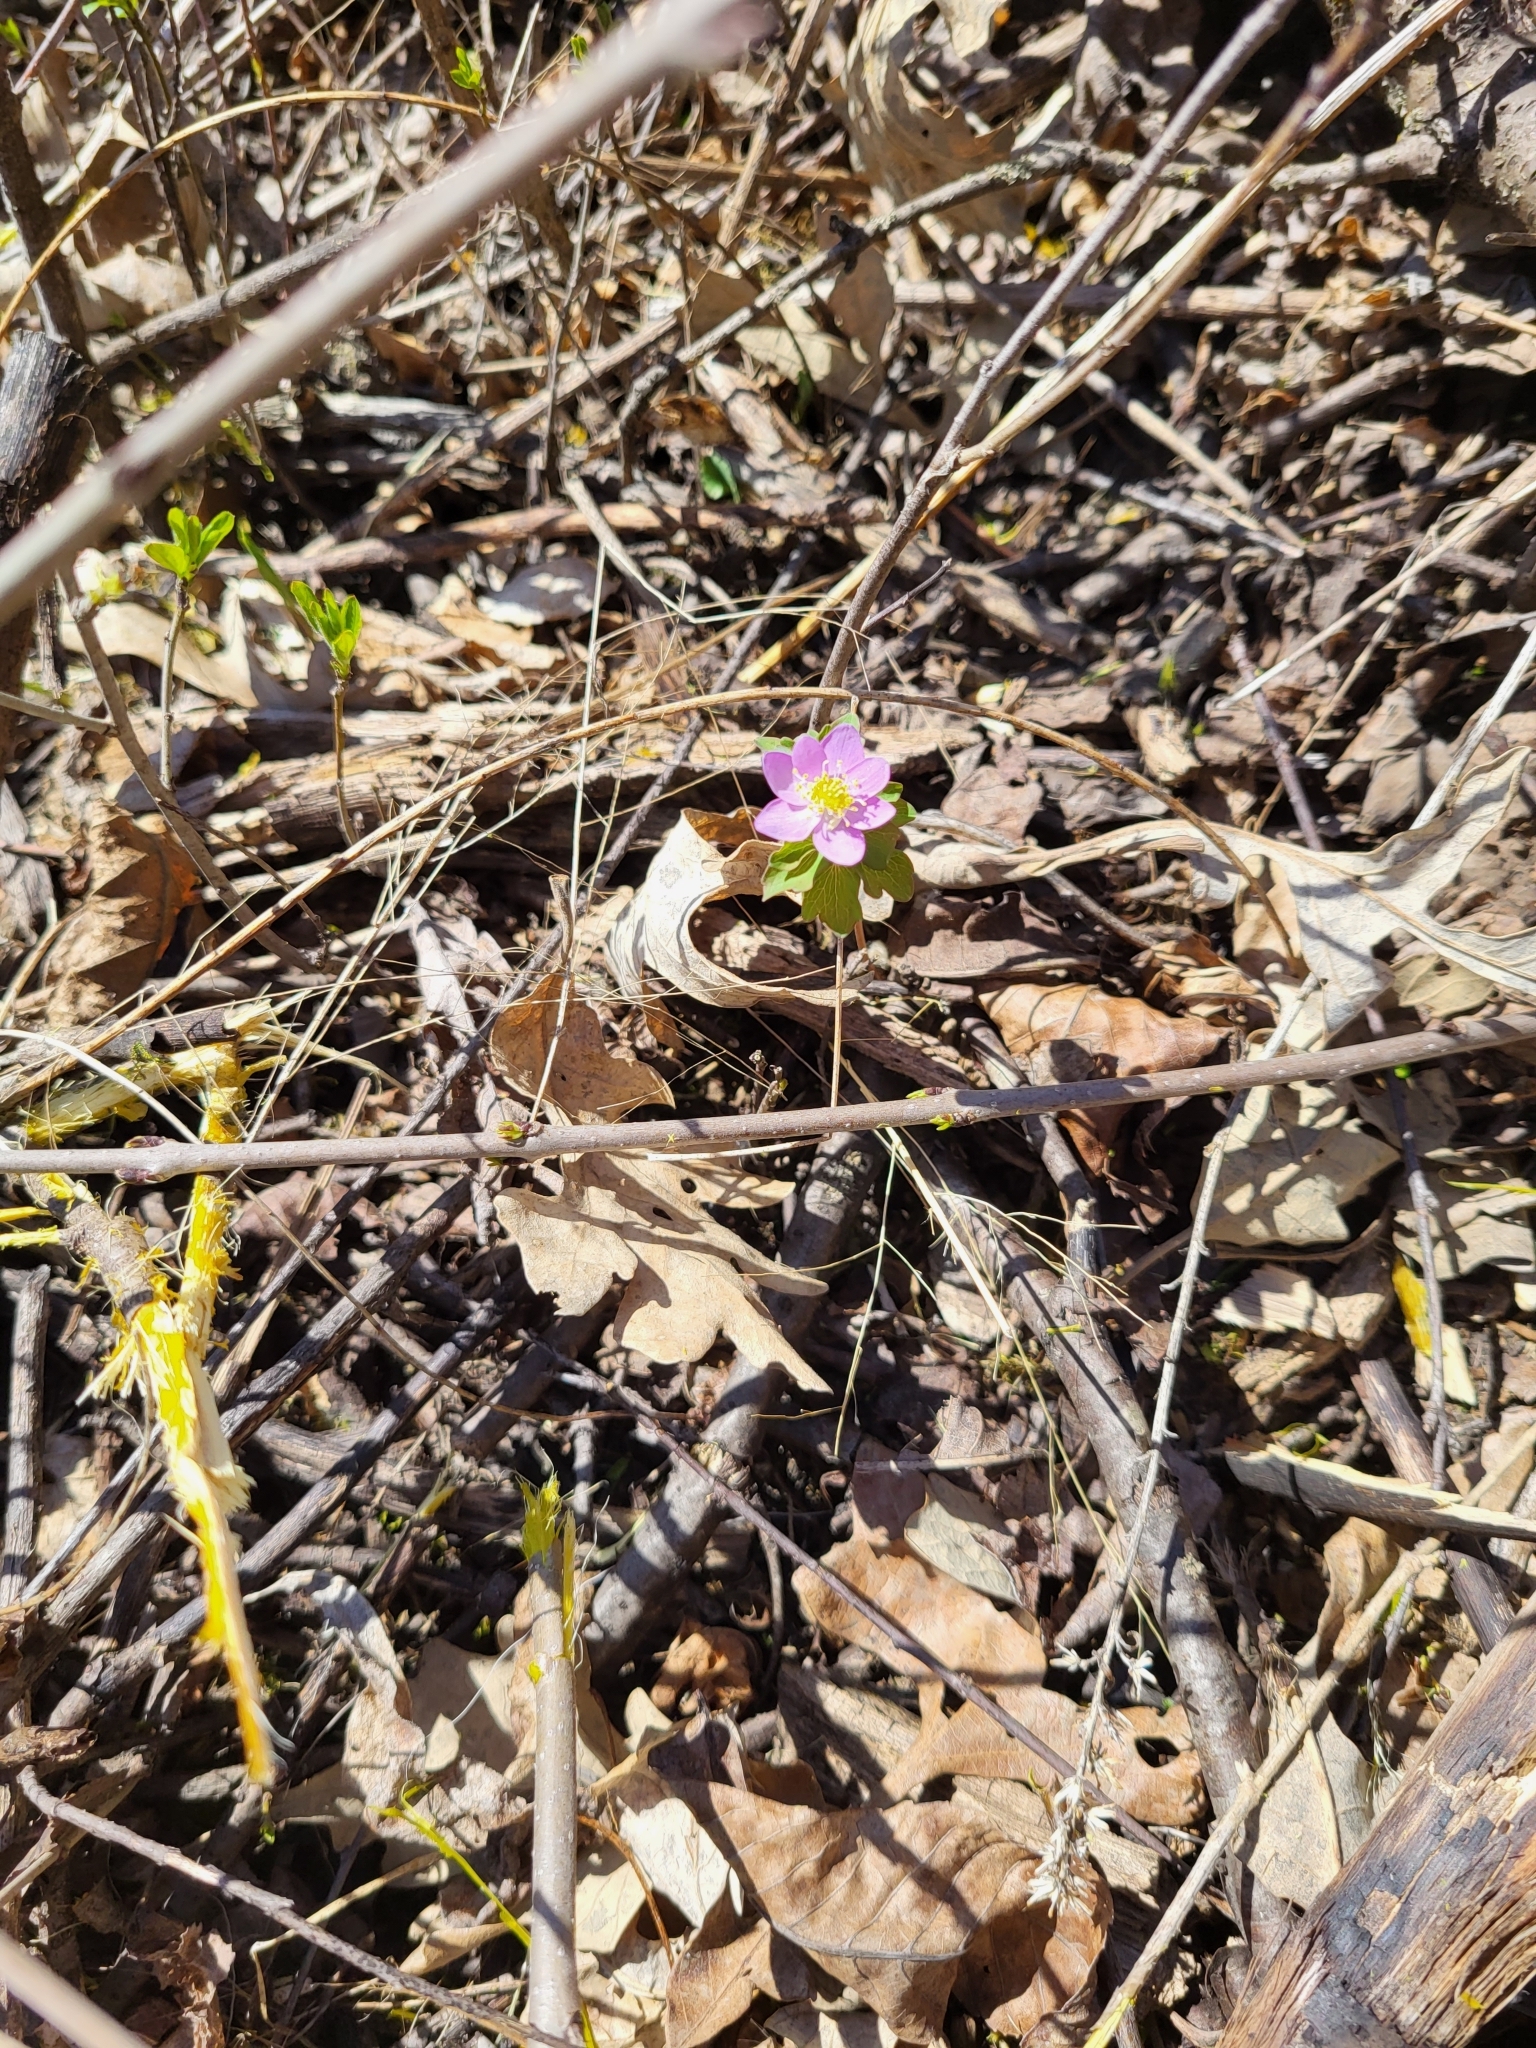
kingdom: Plantae
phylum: Tracheophyta
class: Magnoliopsida
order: Ranunculales
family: Ranunculaceae
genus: Thalictrum
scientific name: Thalictrum thalictroides
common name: Rue-anemone
